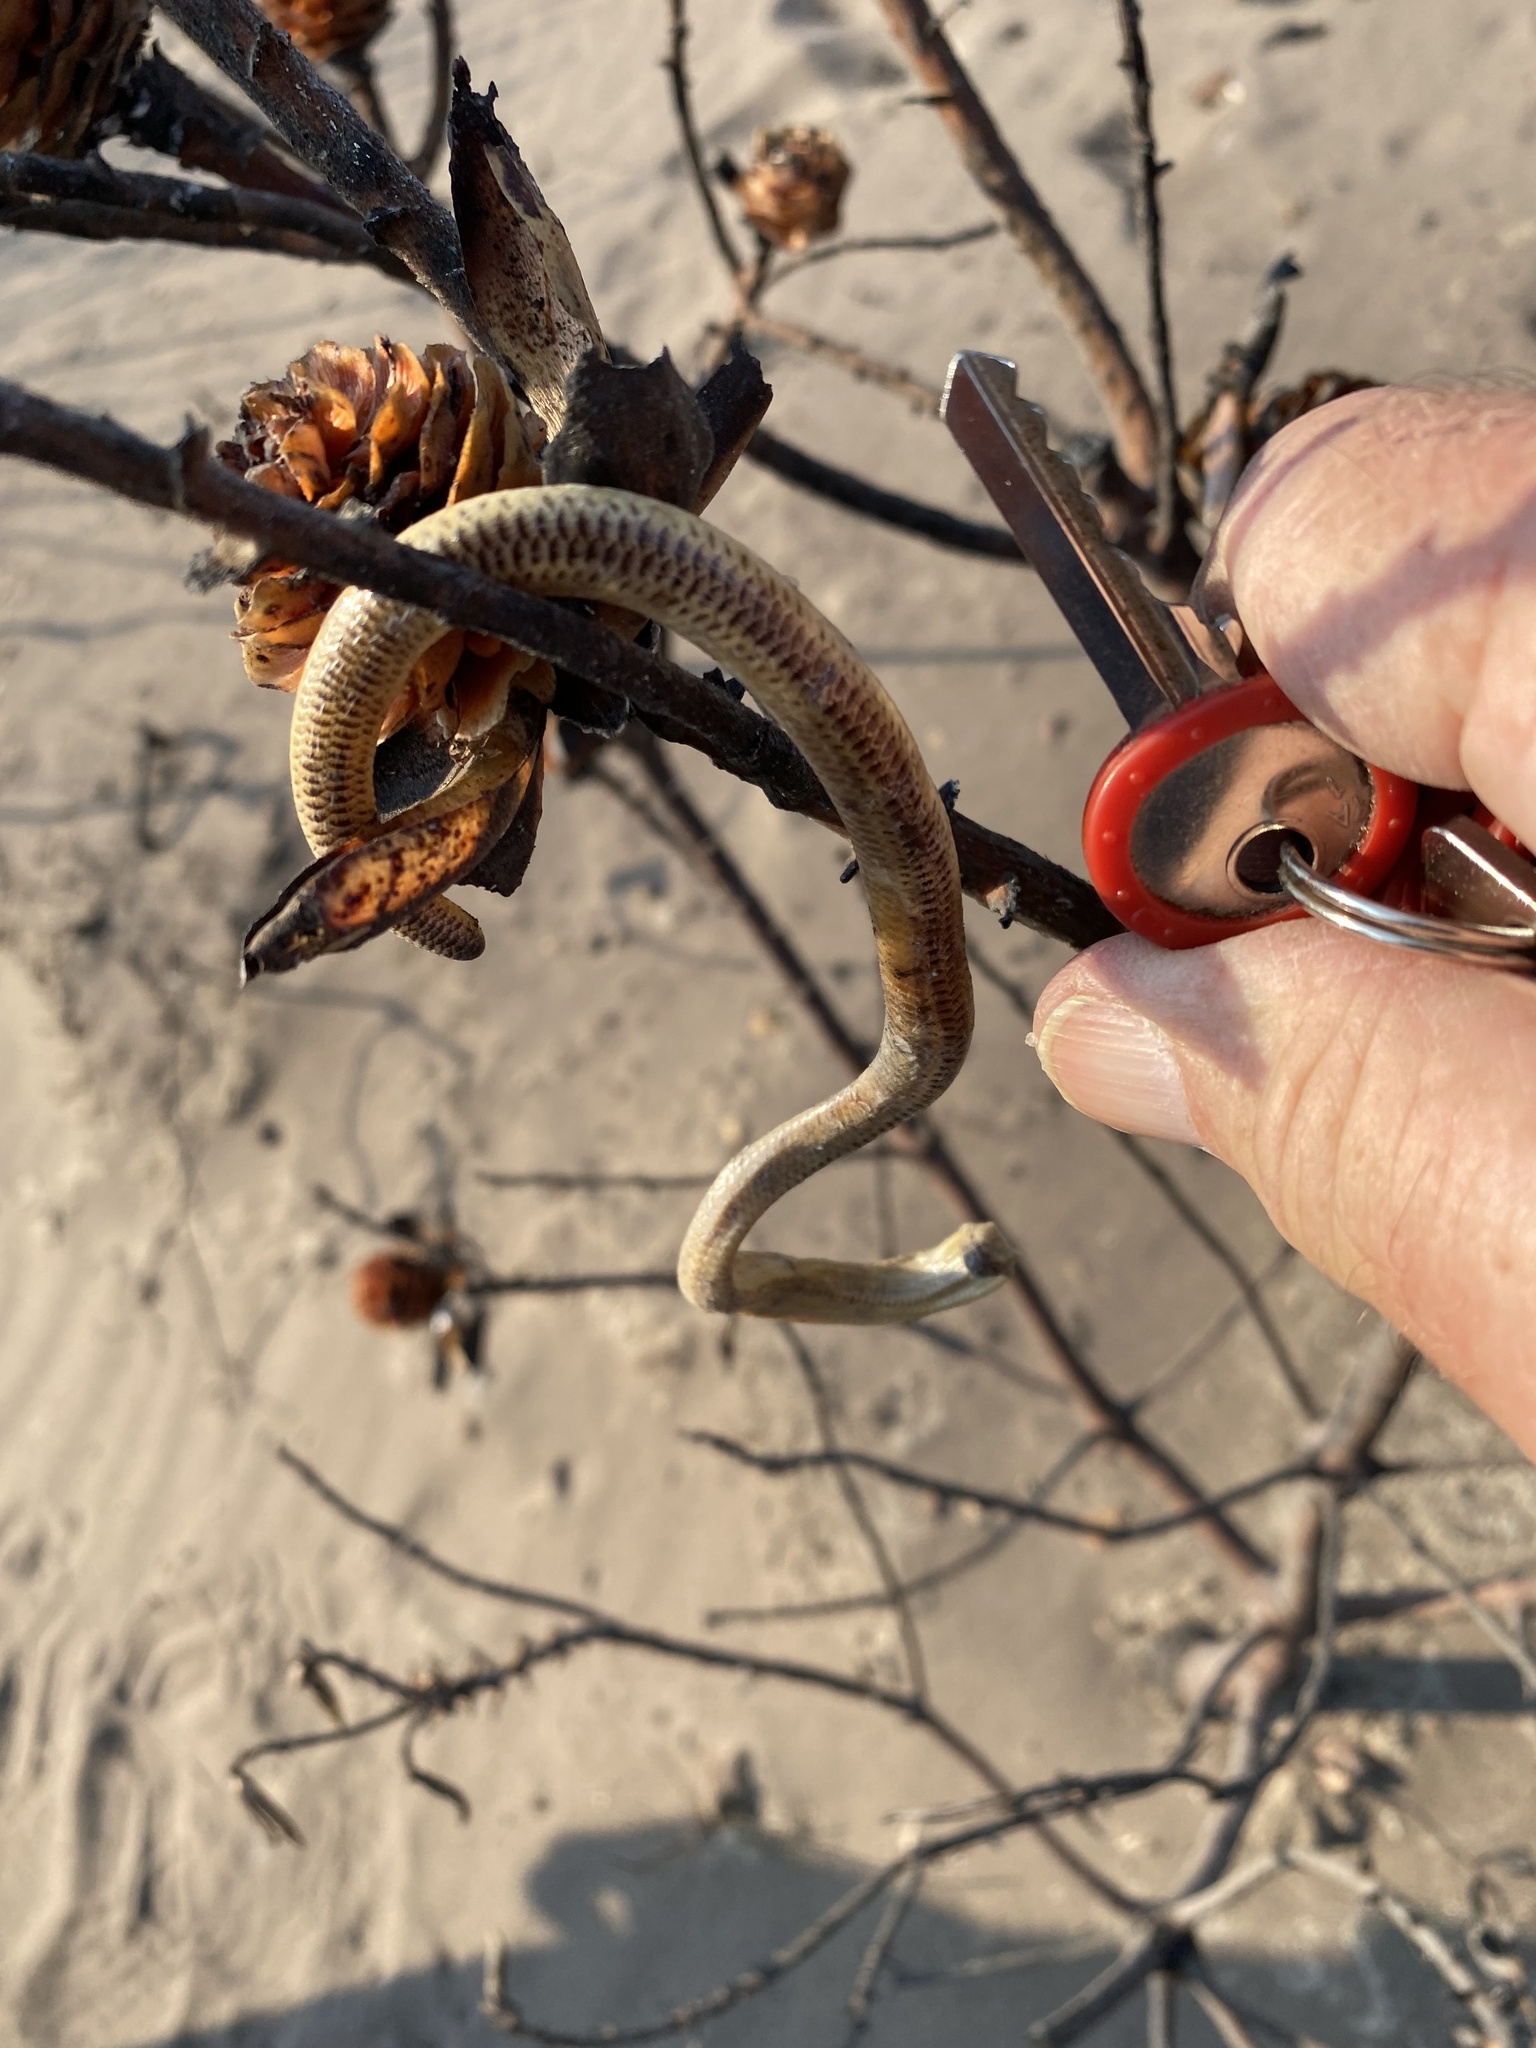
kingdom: Animalia
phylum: Chordata
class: Squamata
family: Scincidae
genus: Acontias
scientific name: Acontias meleagris
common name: Cape legless skink
